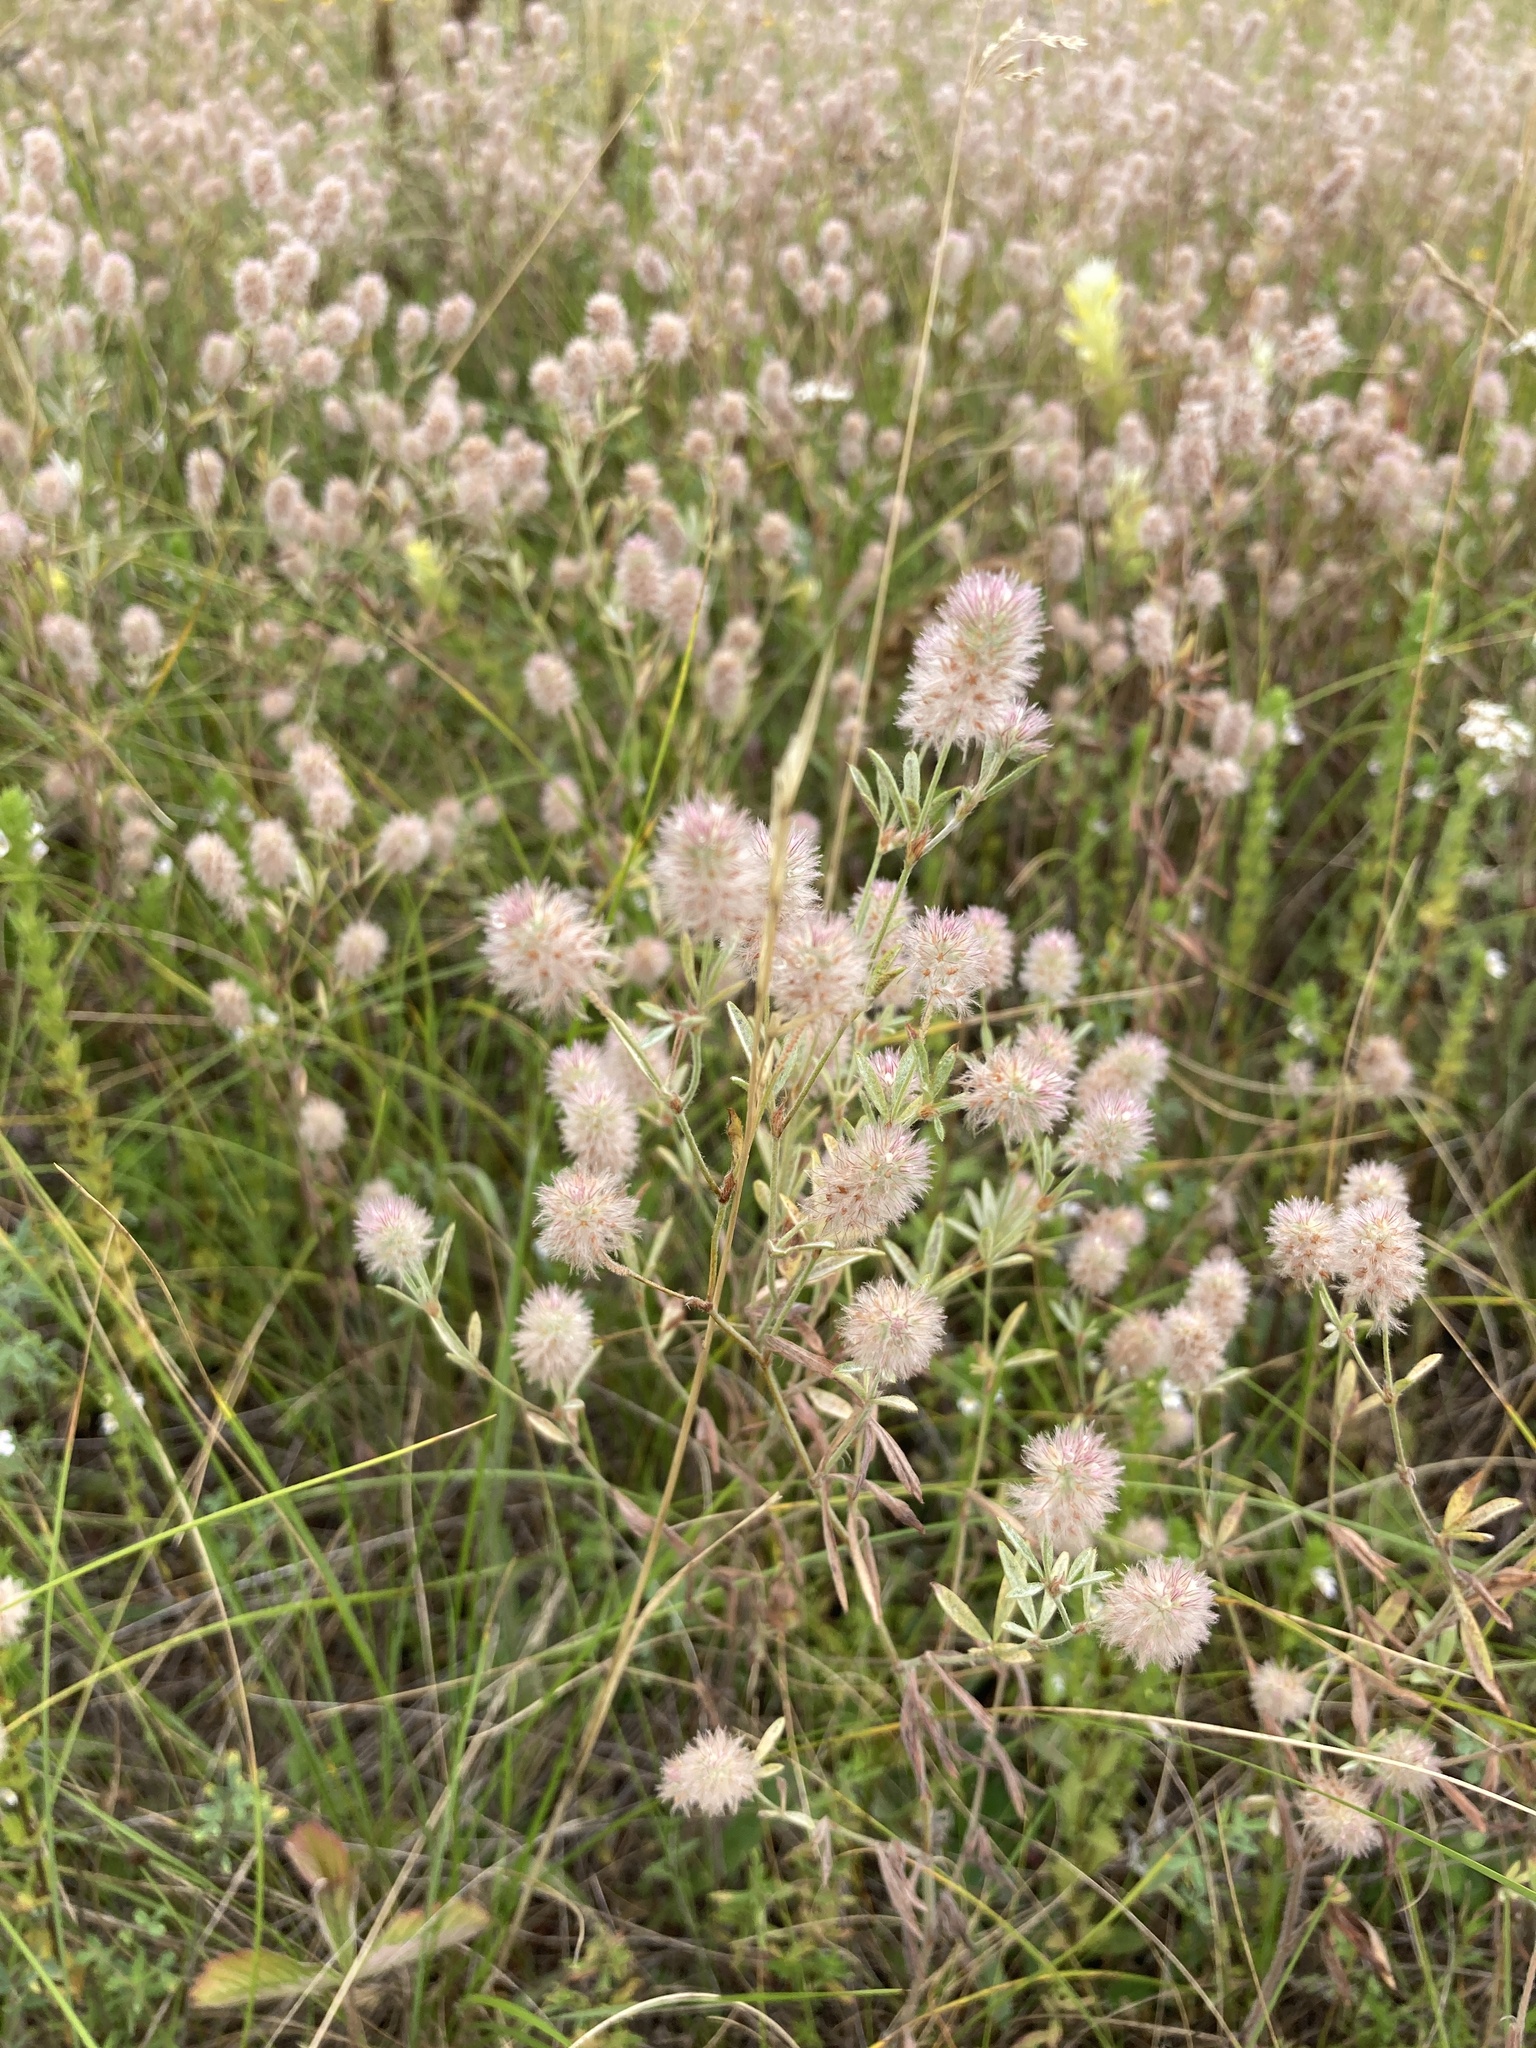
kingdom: Plantae
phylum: Tracheophyta
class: Magnoliopsida
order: Fabales
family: Fabaceae
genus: Trifolium
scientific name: Trifolium arvense
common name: Hare's-foot clover
